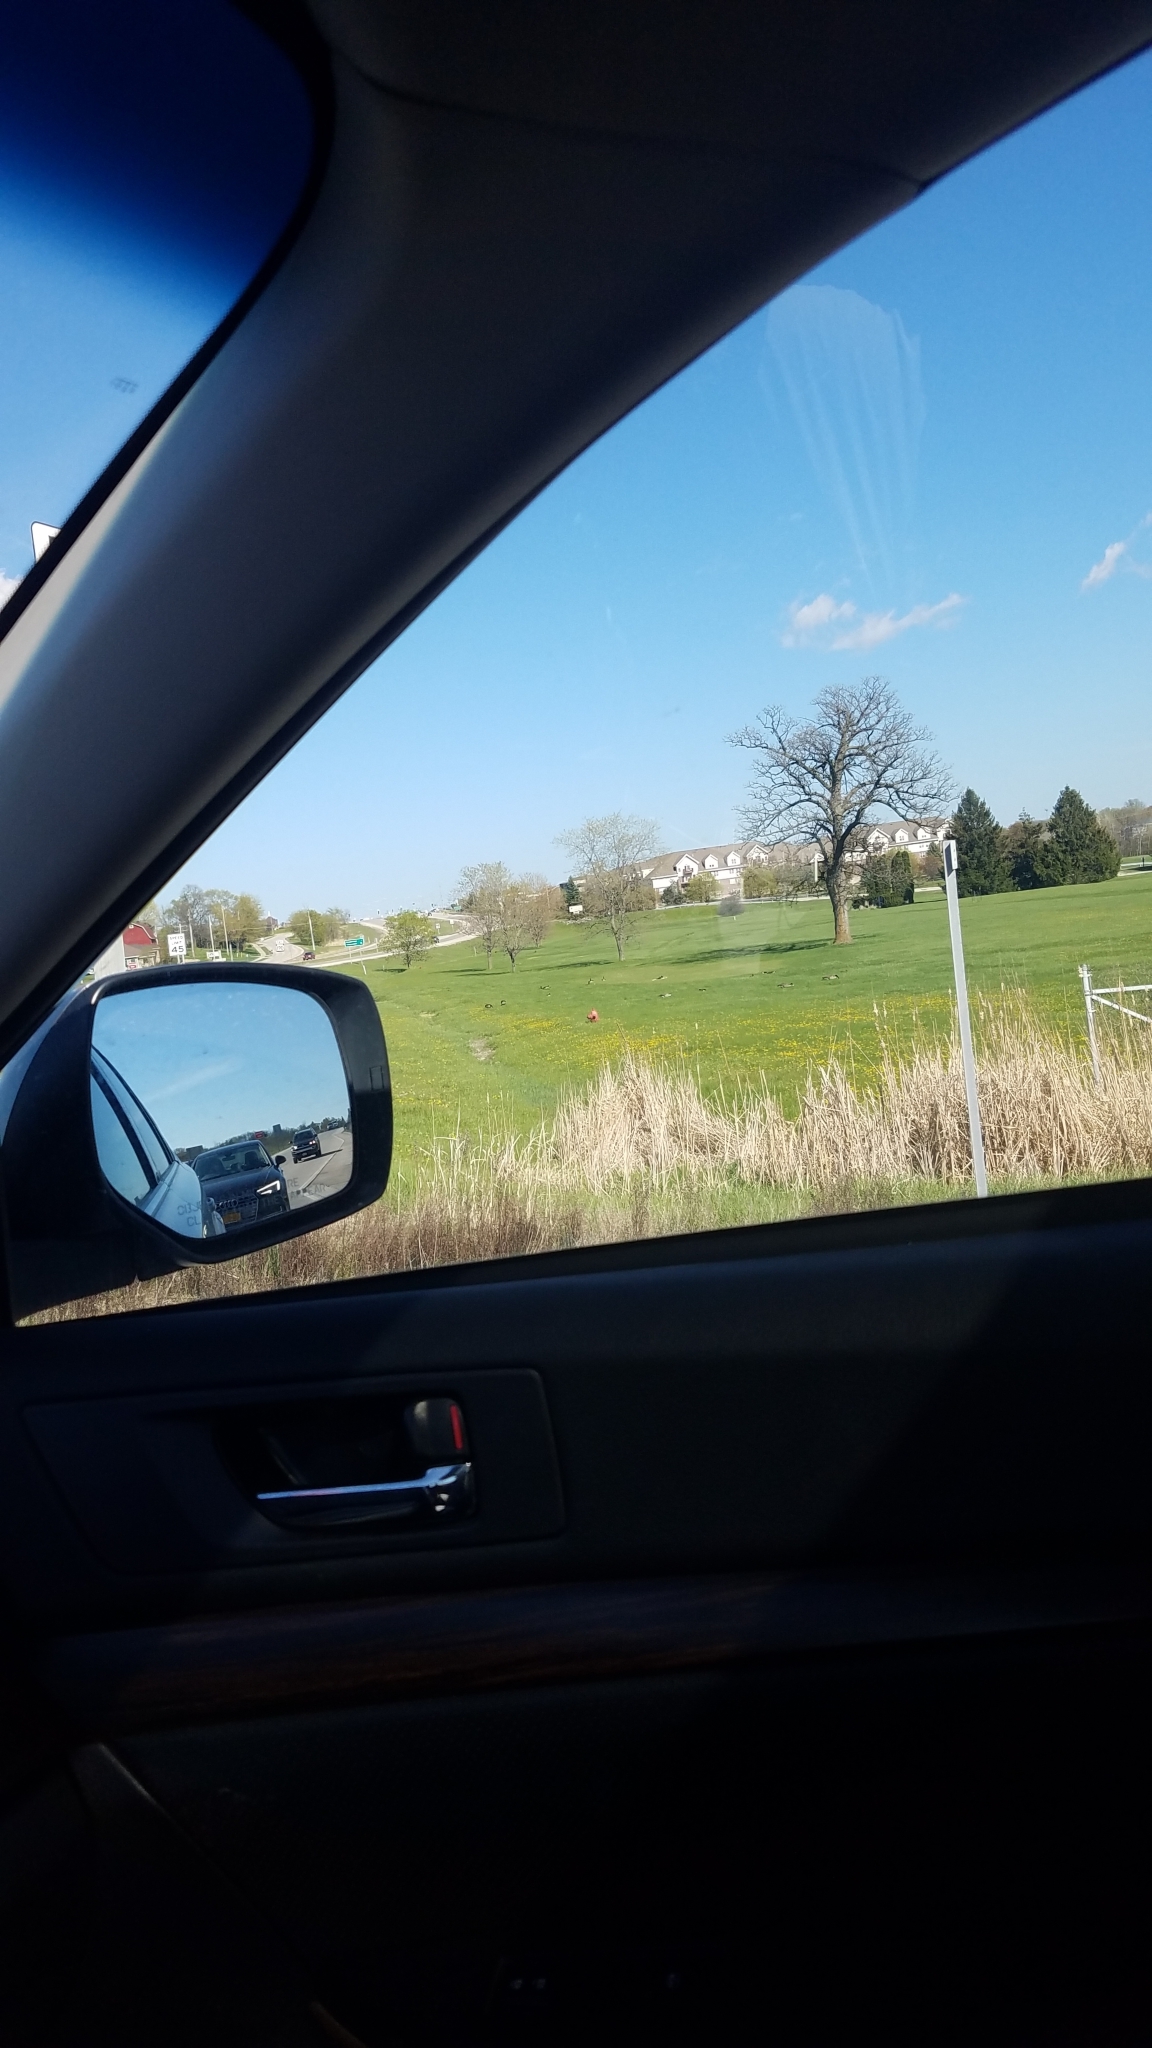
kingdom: Animalia
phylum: Chordata
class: Aves
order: Anseriformes
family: Anatidae
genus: Branta
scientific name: Branta canadensis
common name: Canada goose
